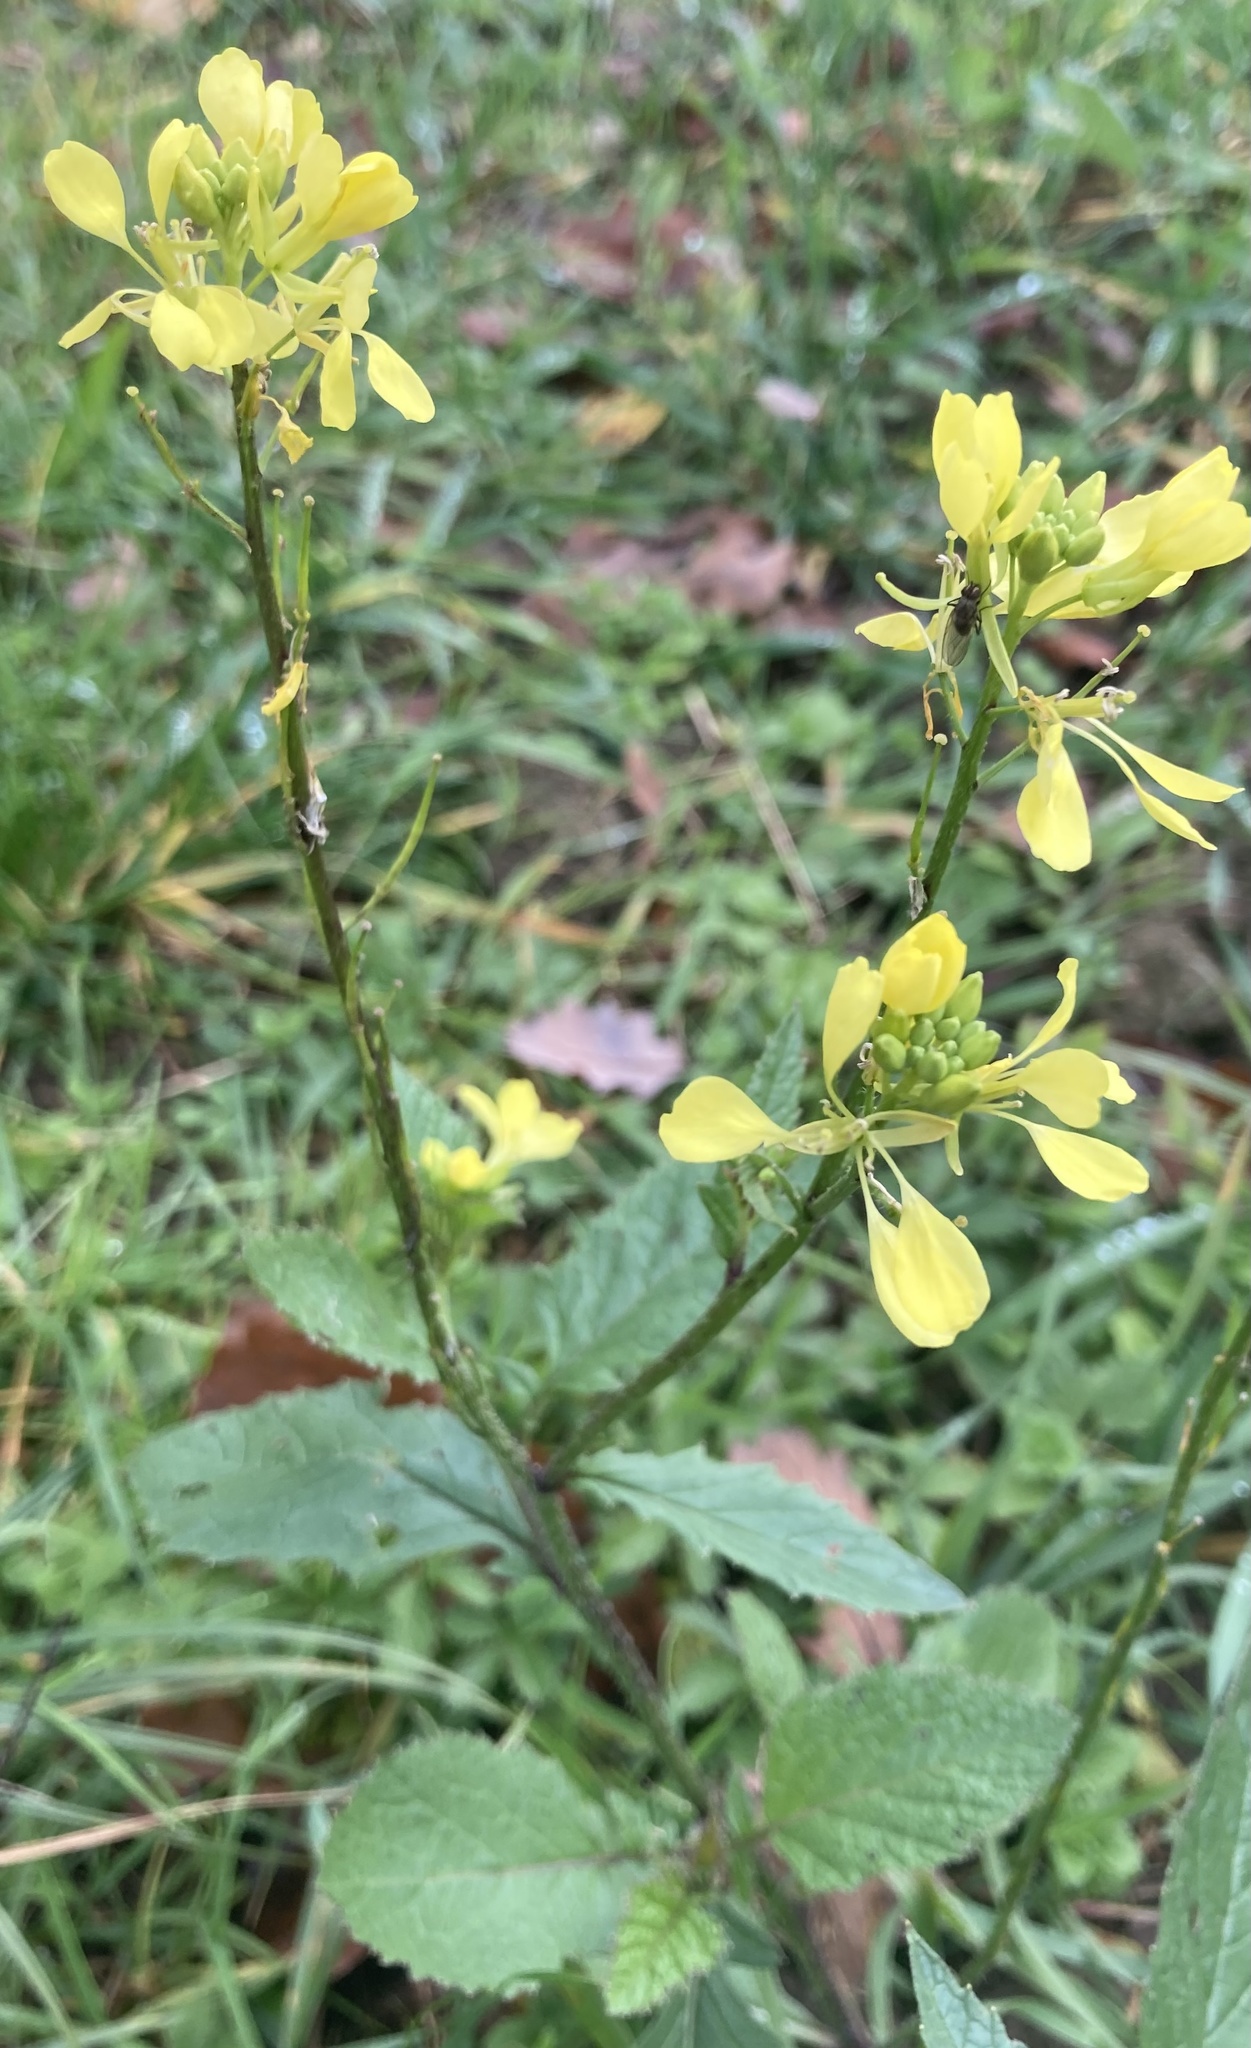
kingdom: Plantae
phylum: Tracheophyta
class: Magnoliopsida
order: Brassicales
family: Brassicaceae
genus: Sinapis
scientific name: Sinapis arvensis
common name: Charlock
